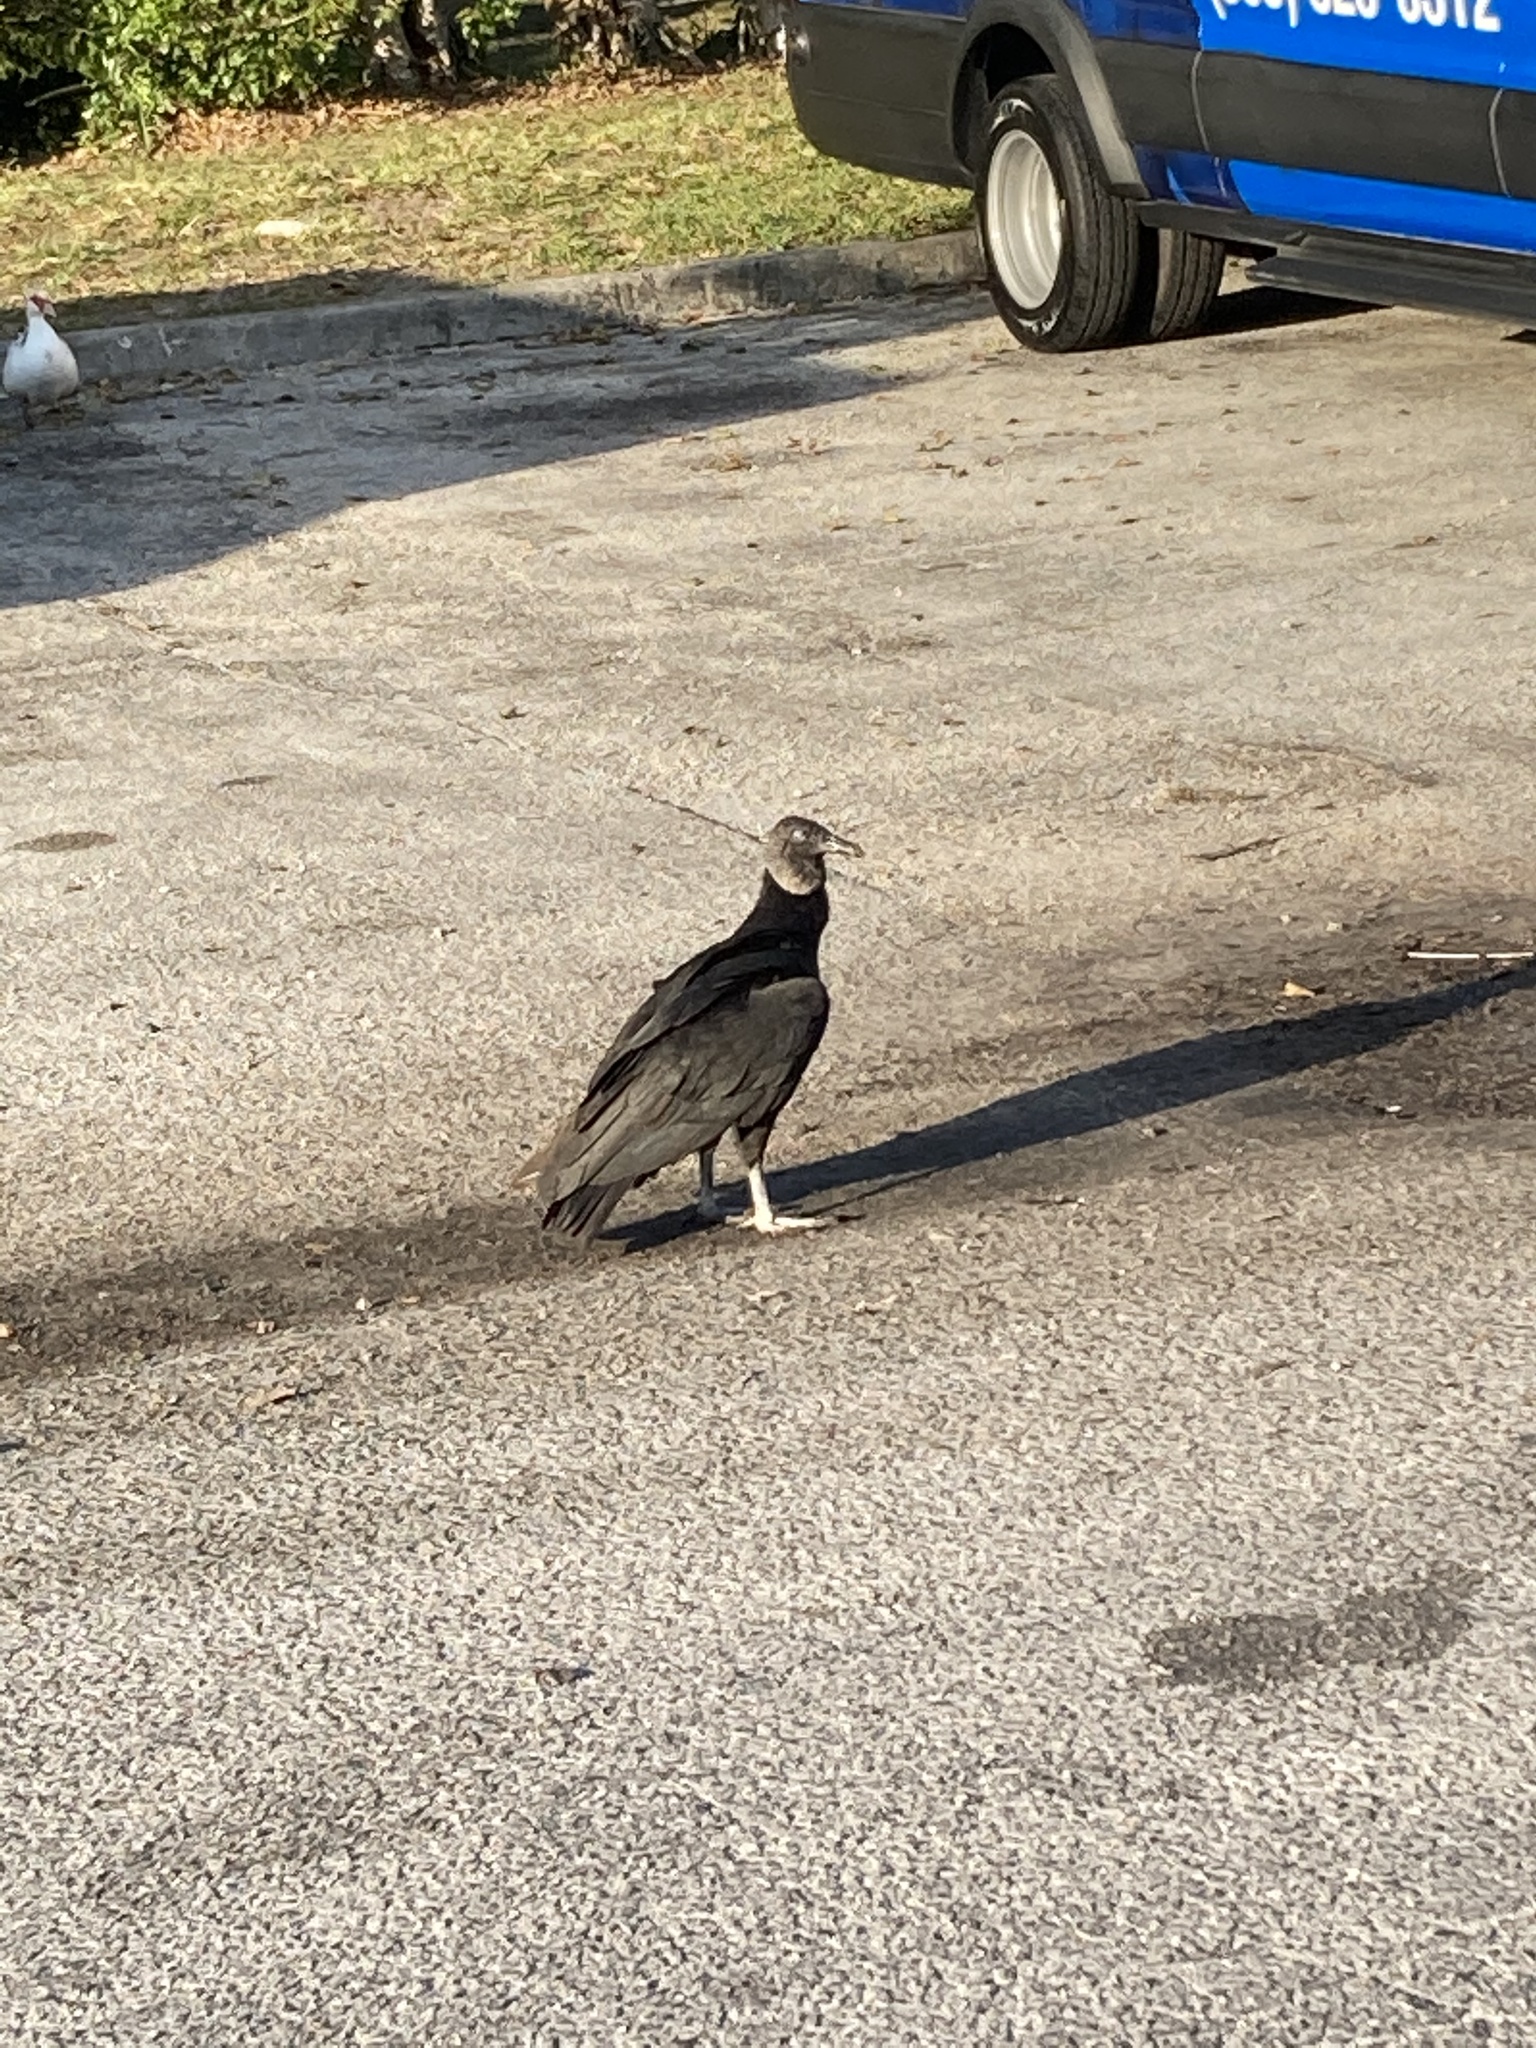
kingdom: Animalia
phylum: Chordata
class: Aves
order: Accipitriformes
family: Cathartidae
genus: Coragyps
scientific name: Coragyps atratus
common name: Black vulture
